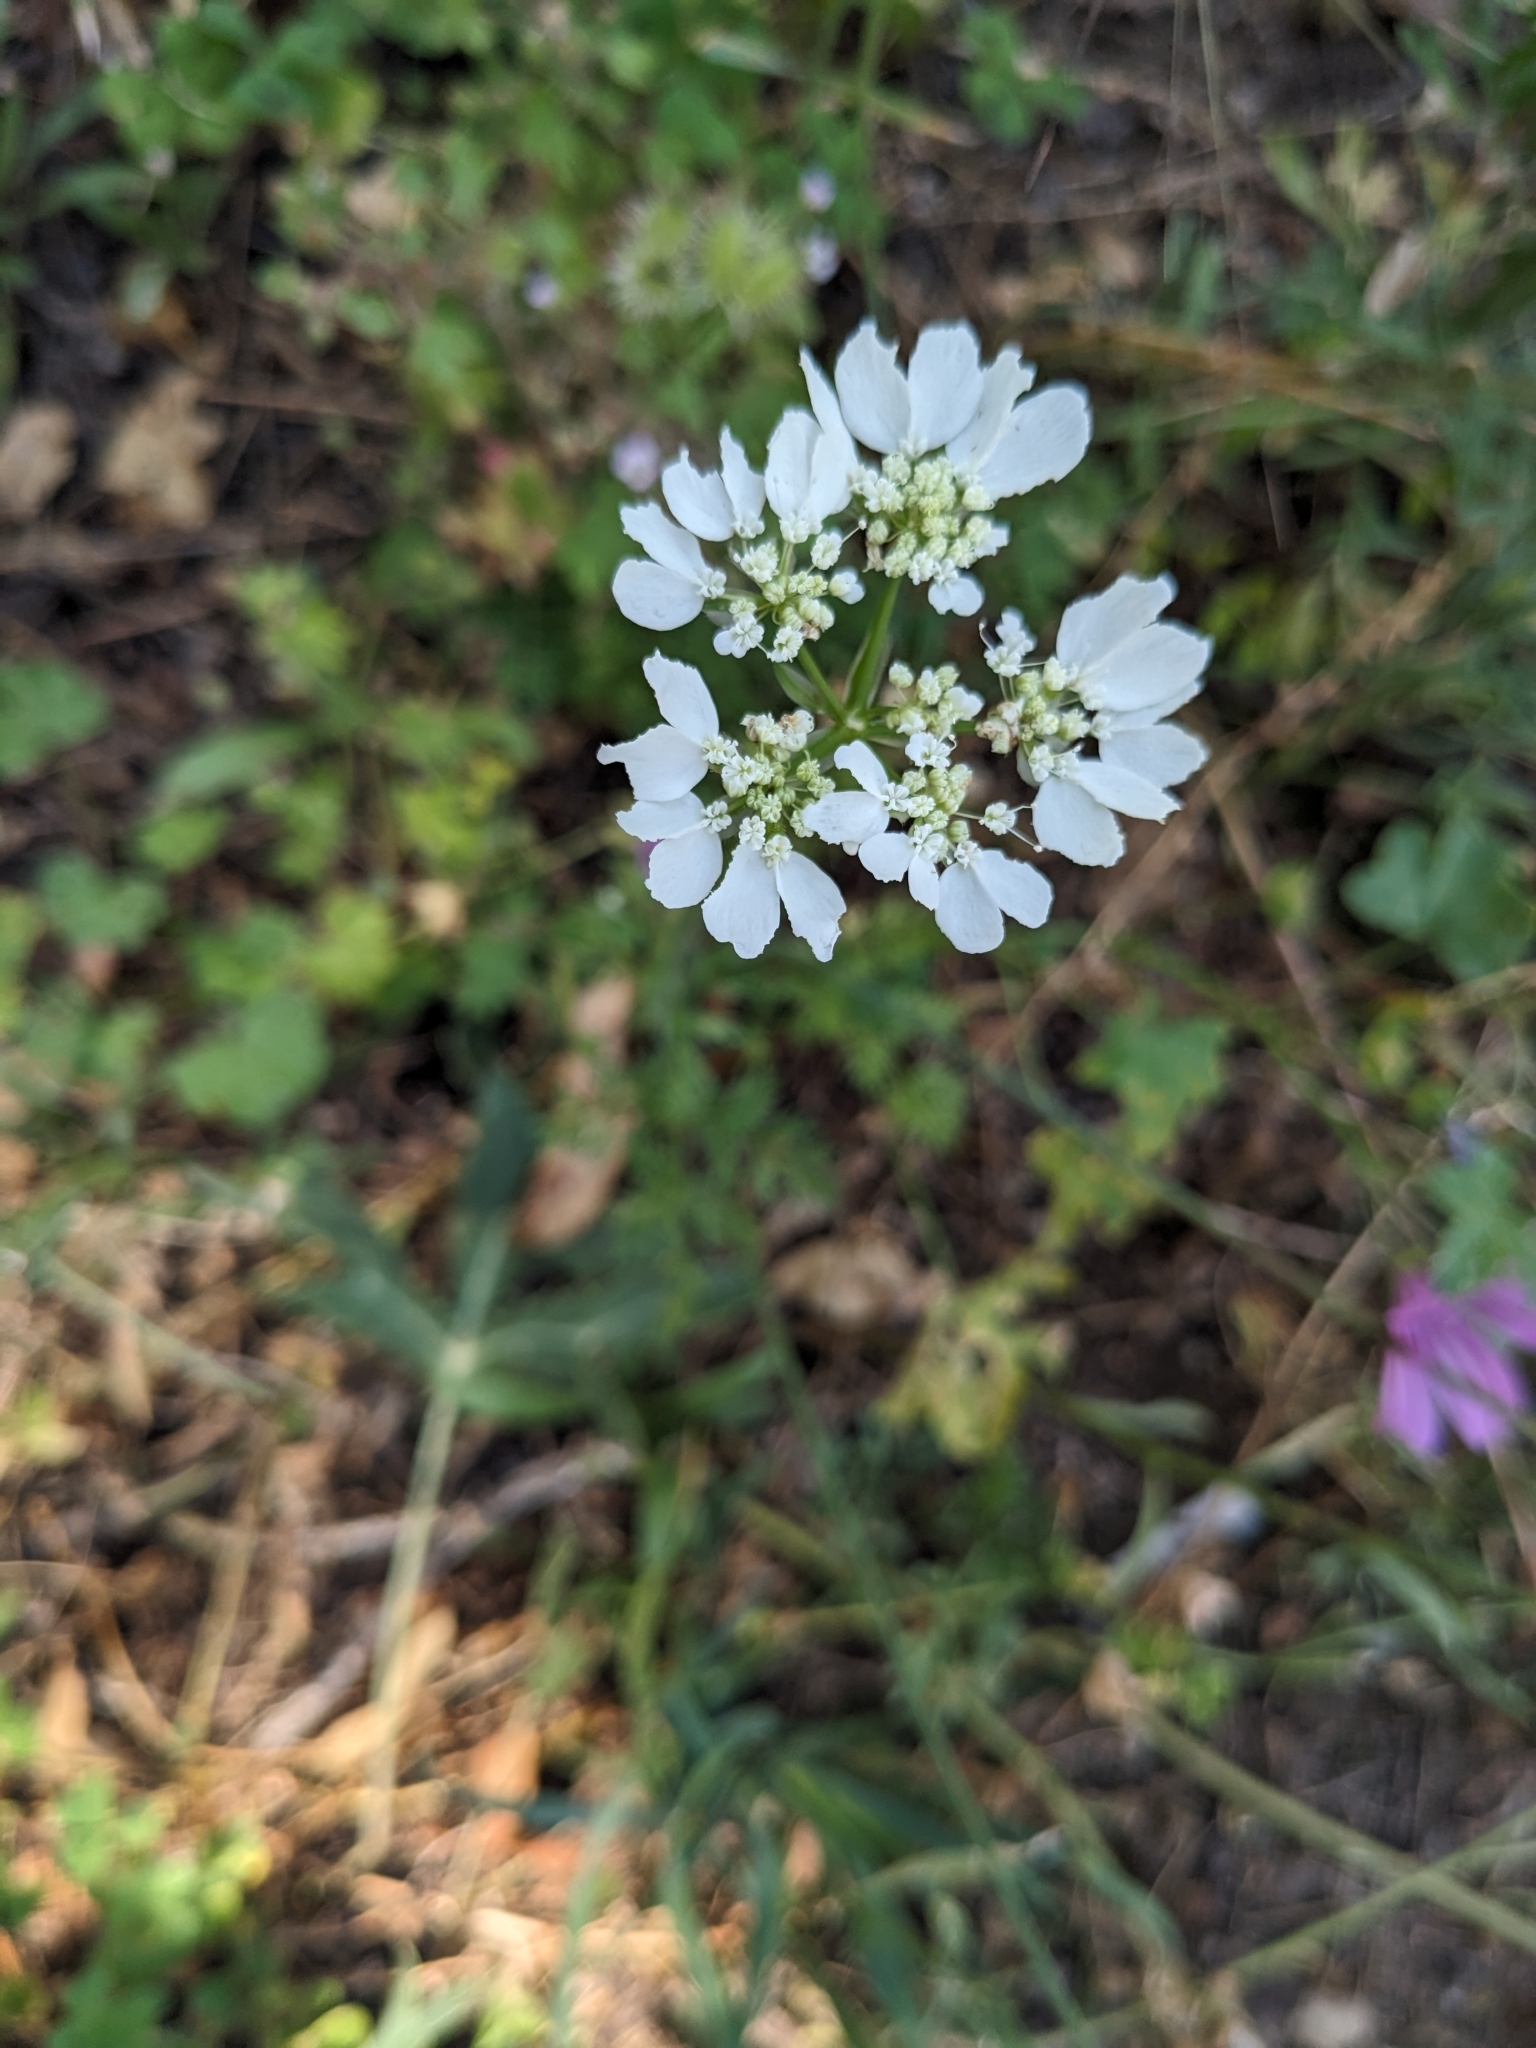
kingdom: Plantae
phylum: Tracheophyta
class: Magnoliopsida
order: Apiales
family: Apiaceae
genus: Orlaya
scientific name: Orlaya grandiflora
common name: White lace flower
